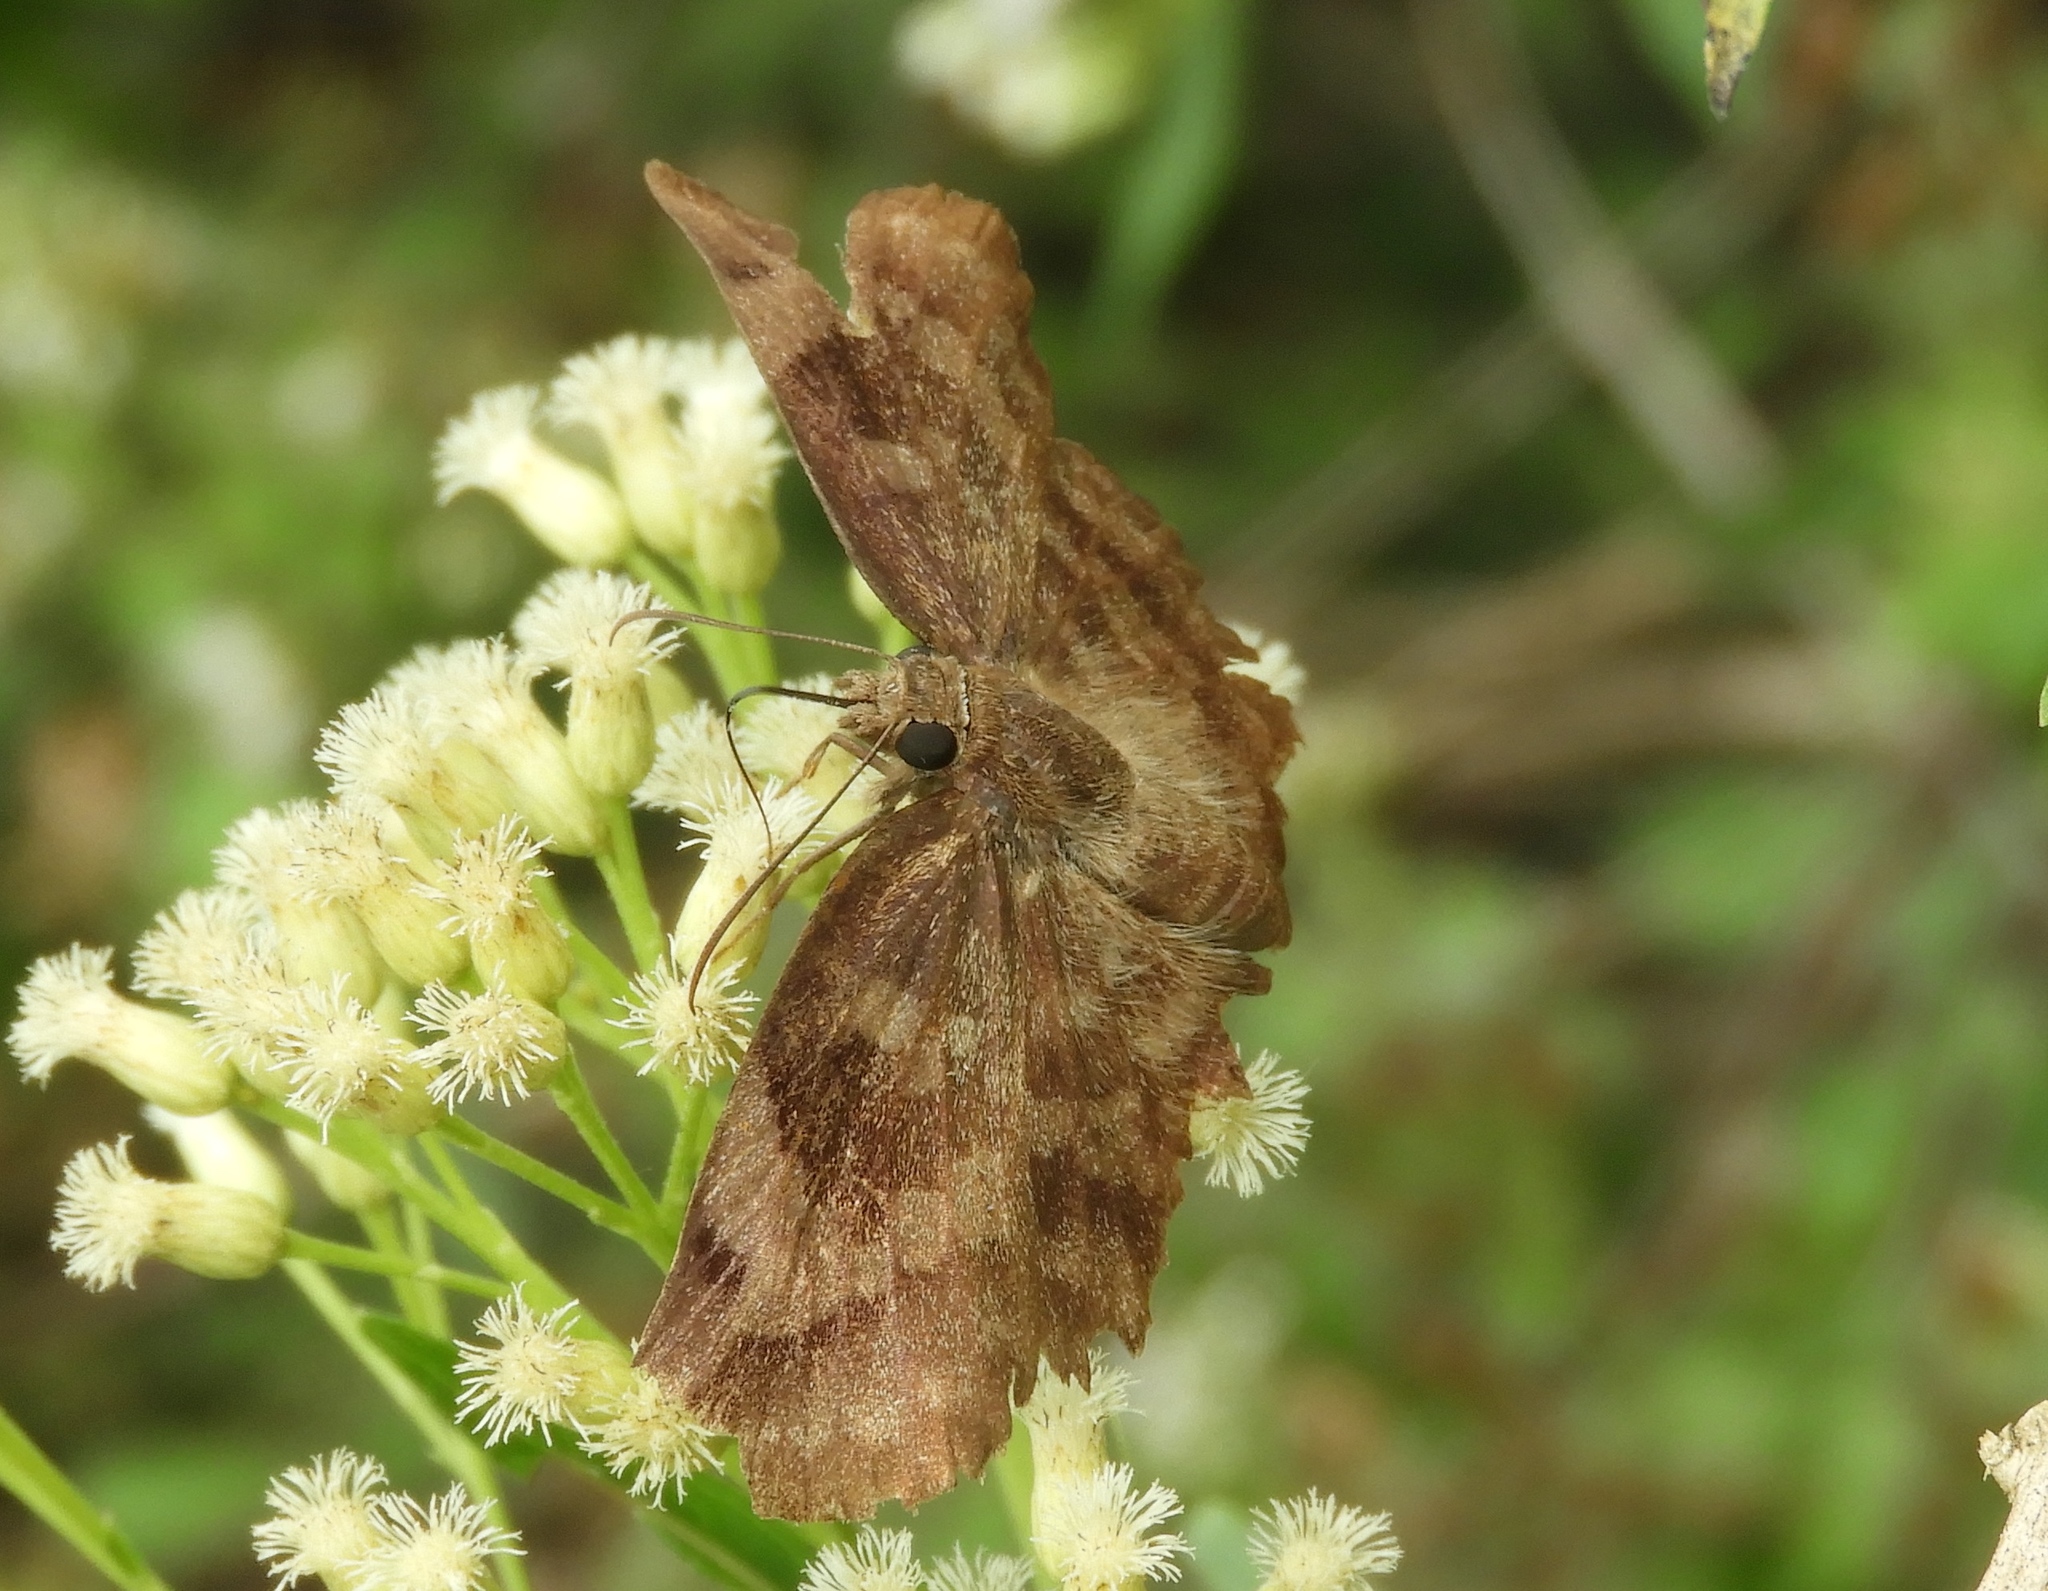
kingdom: Animalia
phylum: Arthropoda
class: Insecta
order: Lepidoptera
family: Hesperiidae
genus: Achlyodes
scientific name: Achlyodes thraso
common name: Sickle-winged skipper
